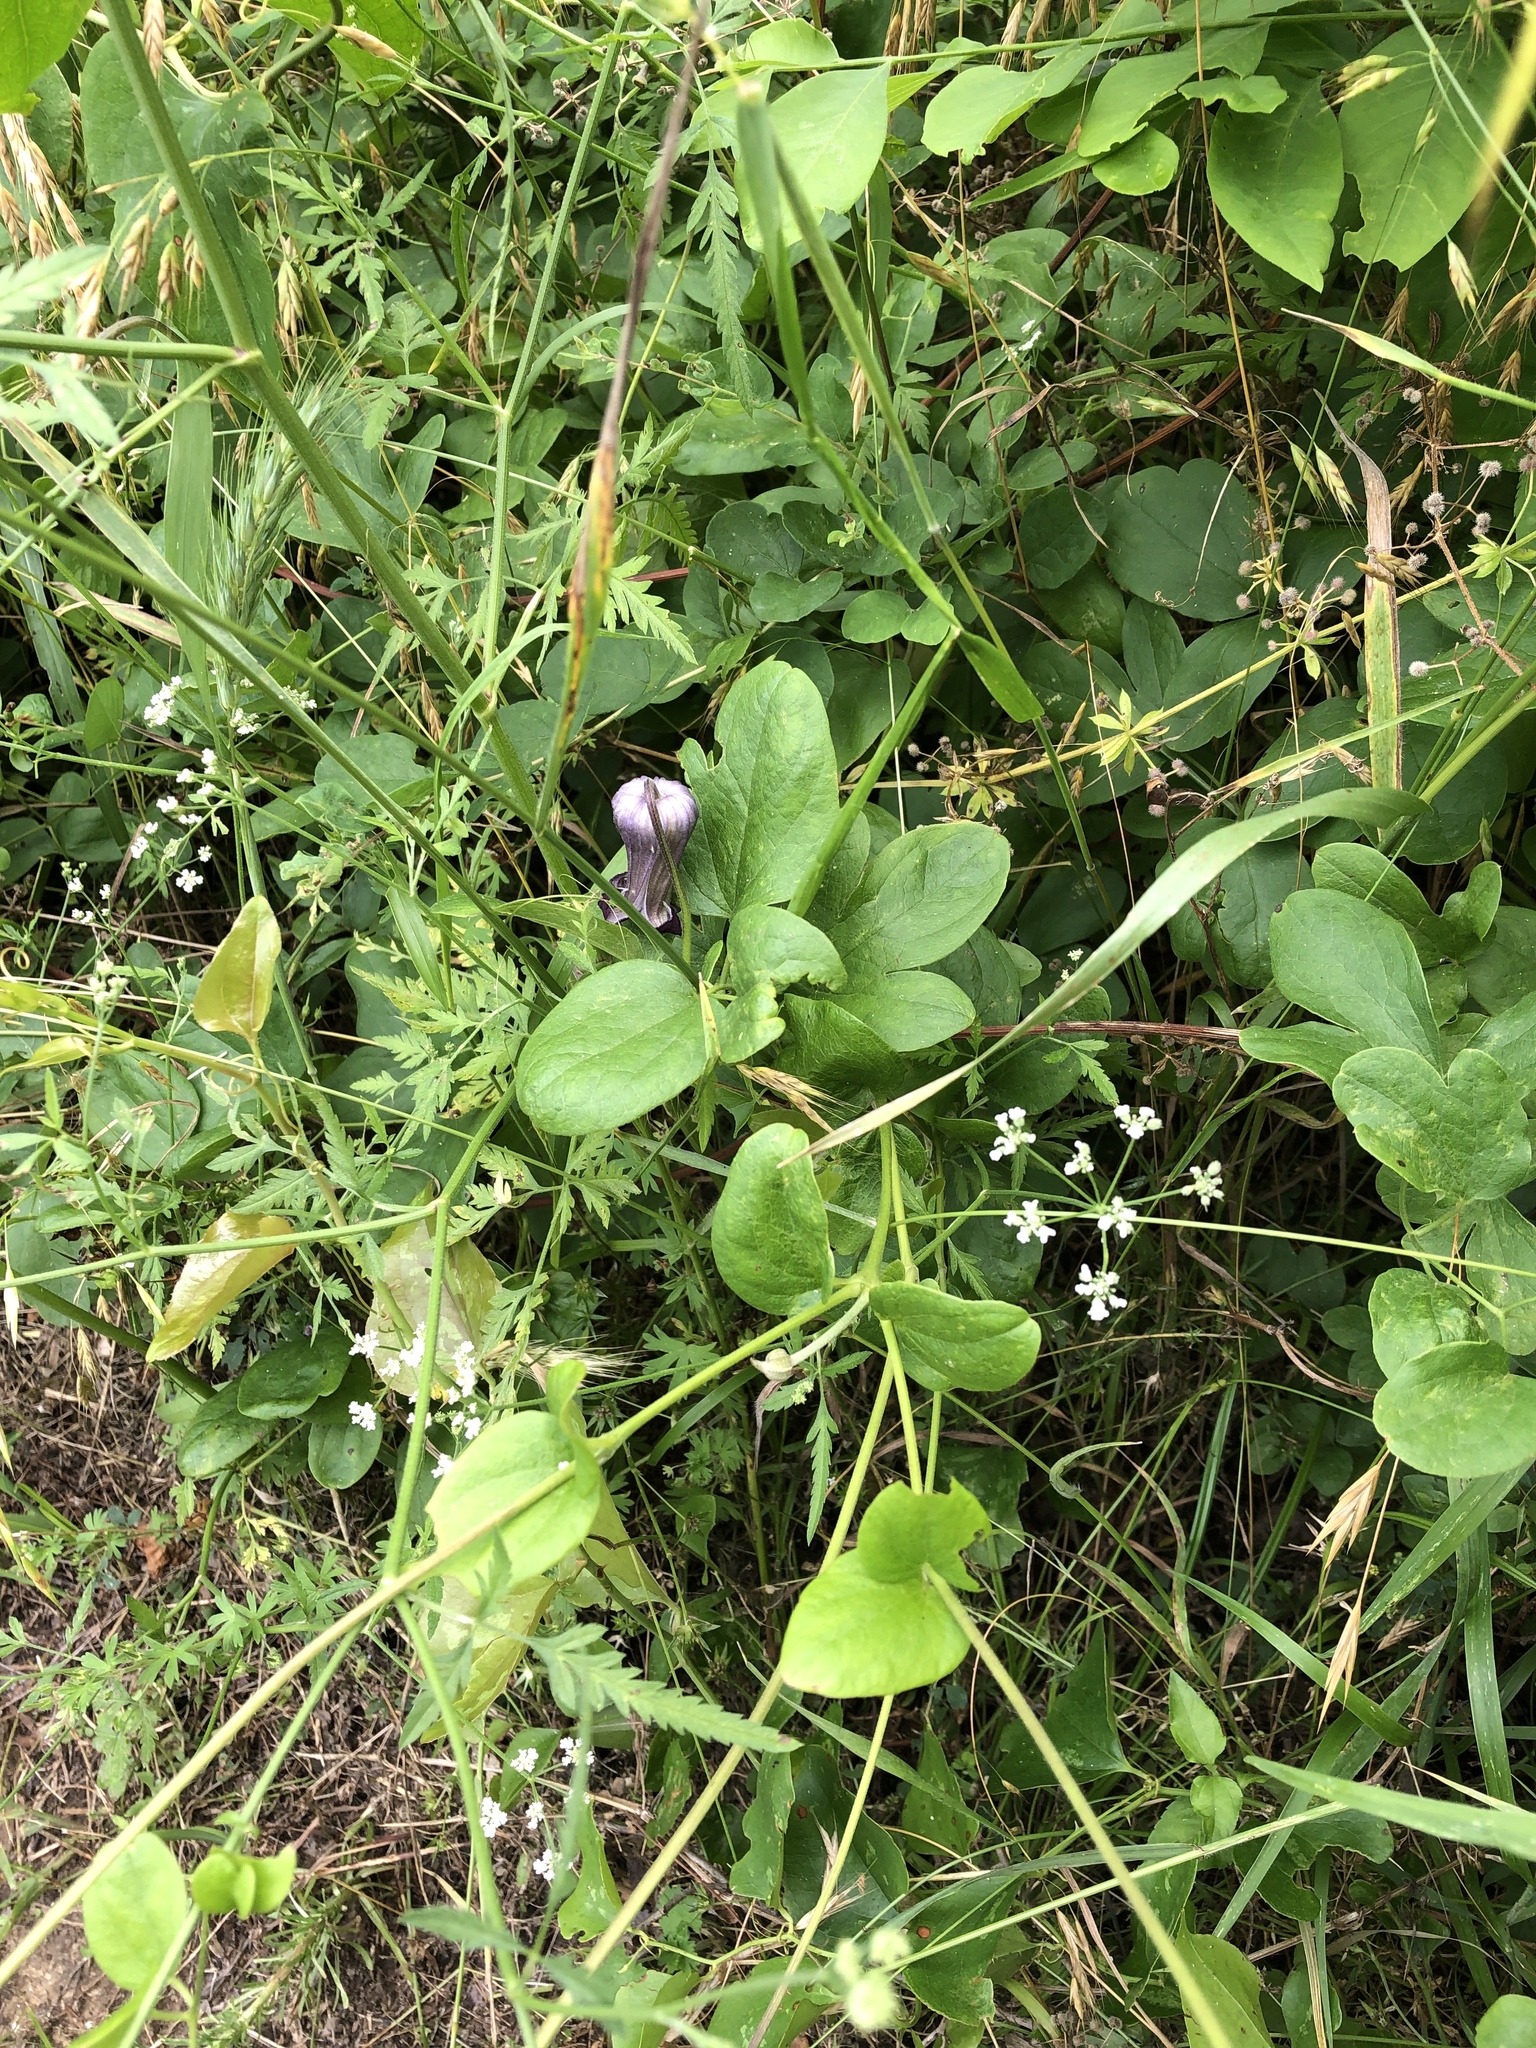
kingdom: Plantae
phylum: Tracheophyta
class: Magnoliopsida
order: Ranunculales
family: Ranunculaceae
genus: Clematis
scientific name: Clematis pitcheri
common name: Bellflower clematis
